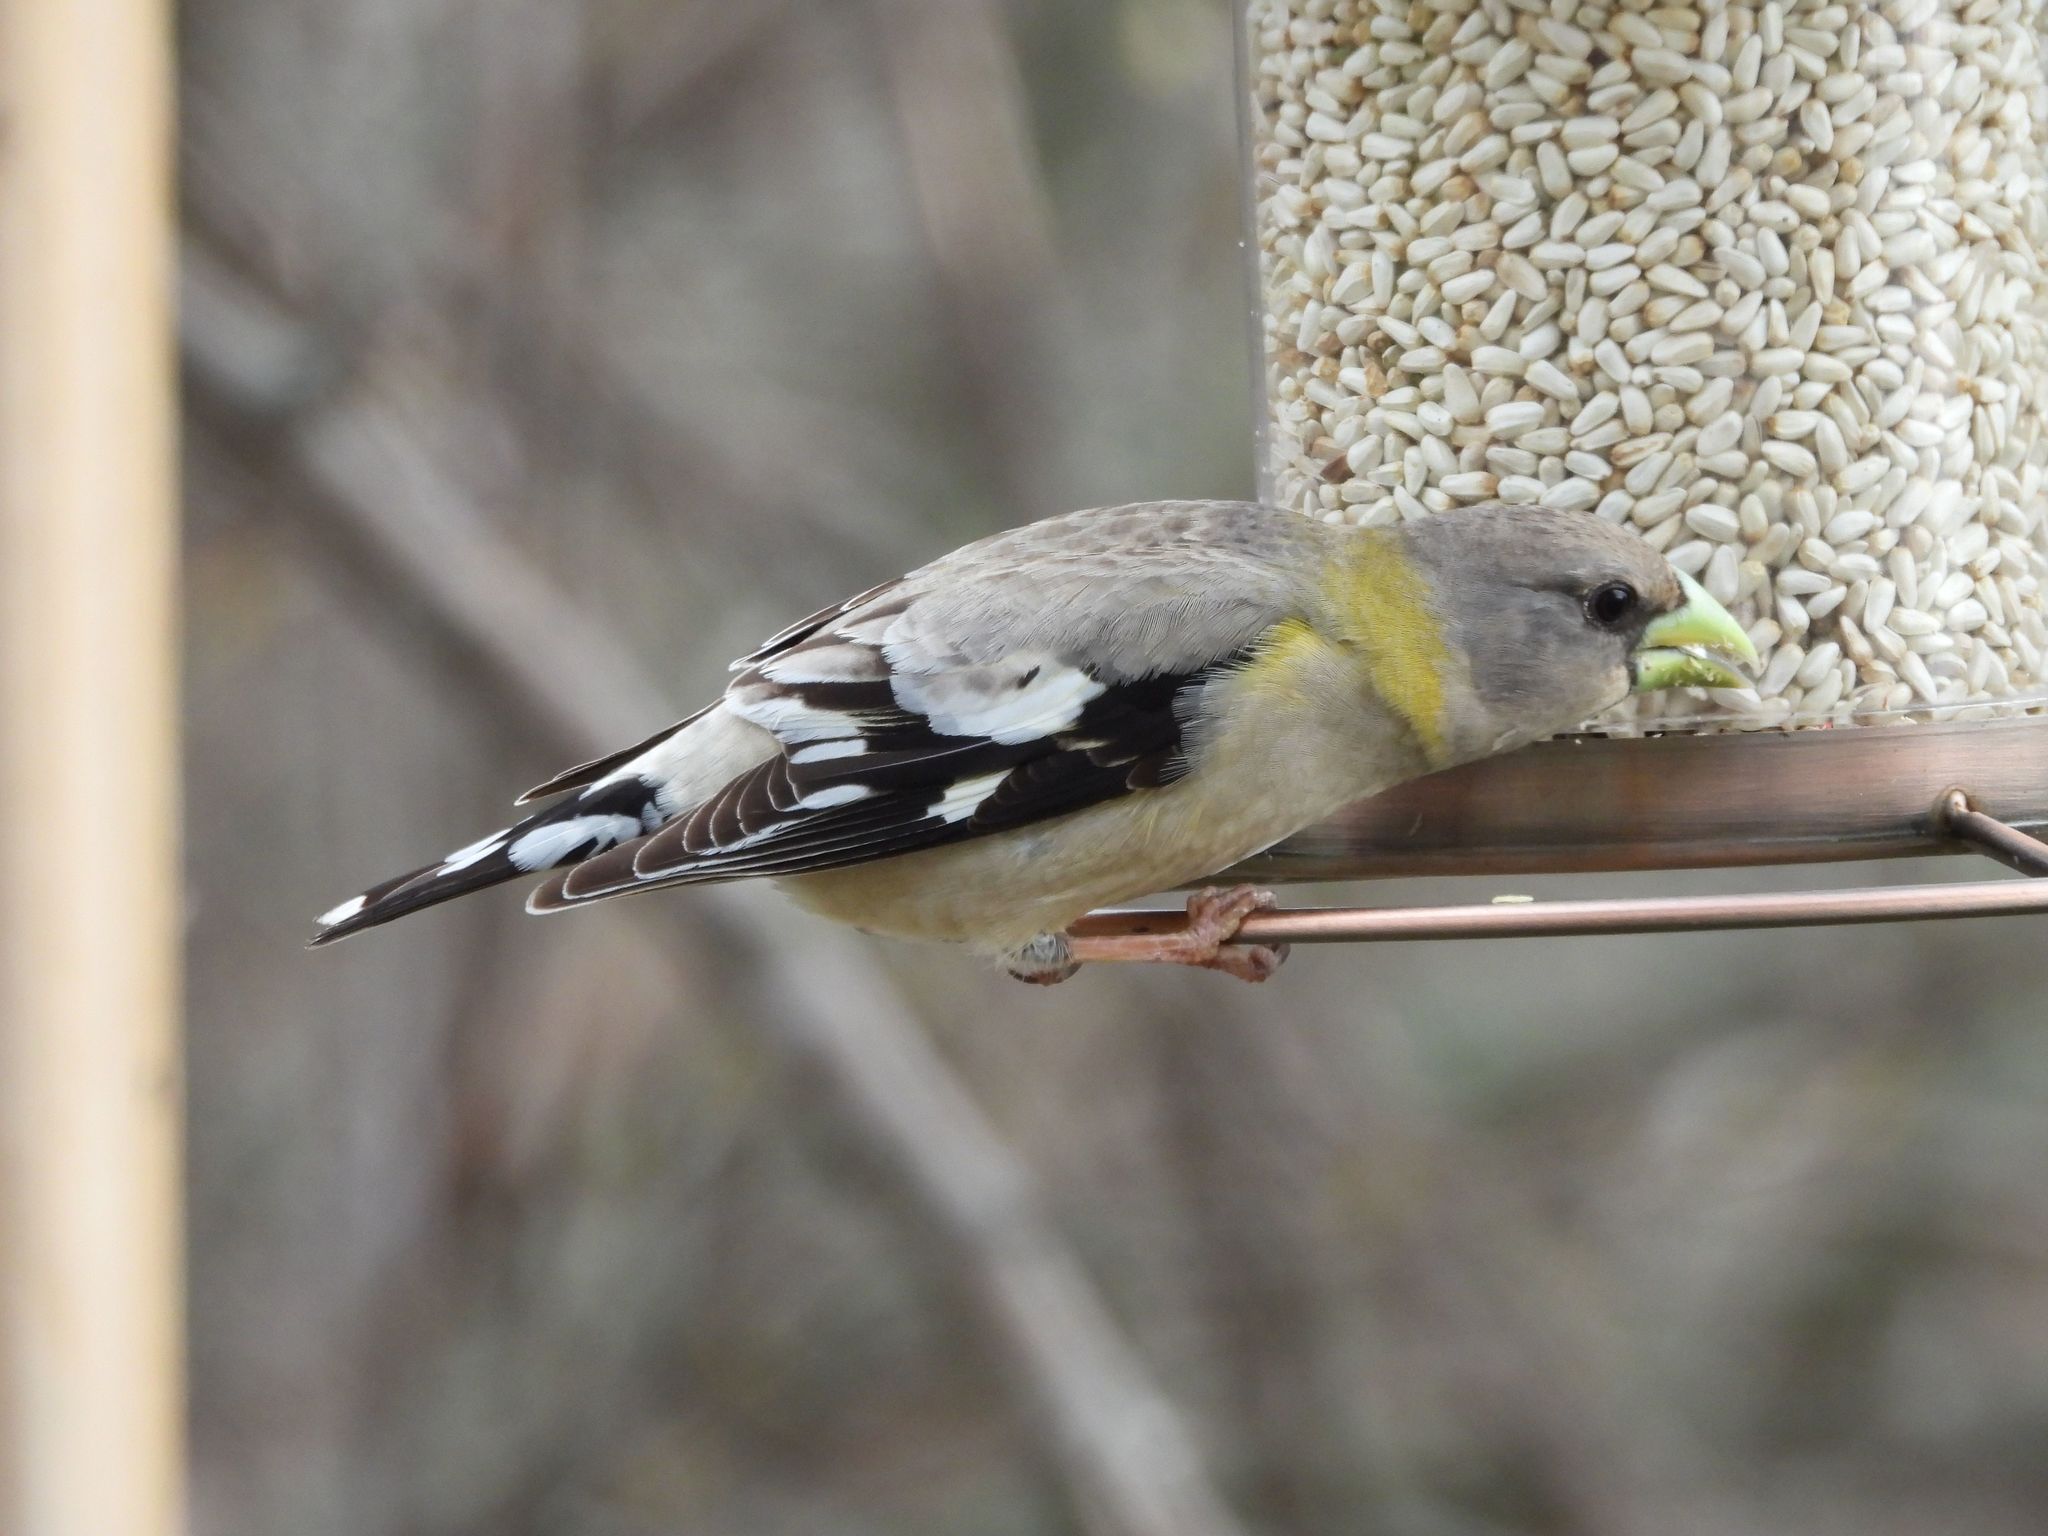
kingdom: Animalia
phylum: Chordata
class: Aves
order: Passeriformes
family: Fringillidae
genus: Hesperiphona
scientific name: Hesperiphona vespertina
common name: Evening grosbeak
